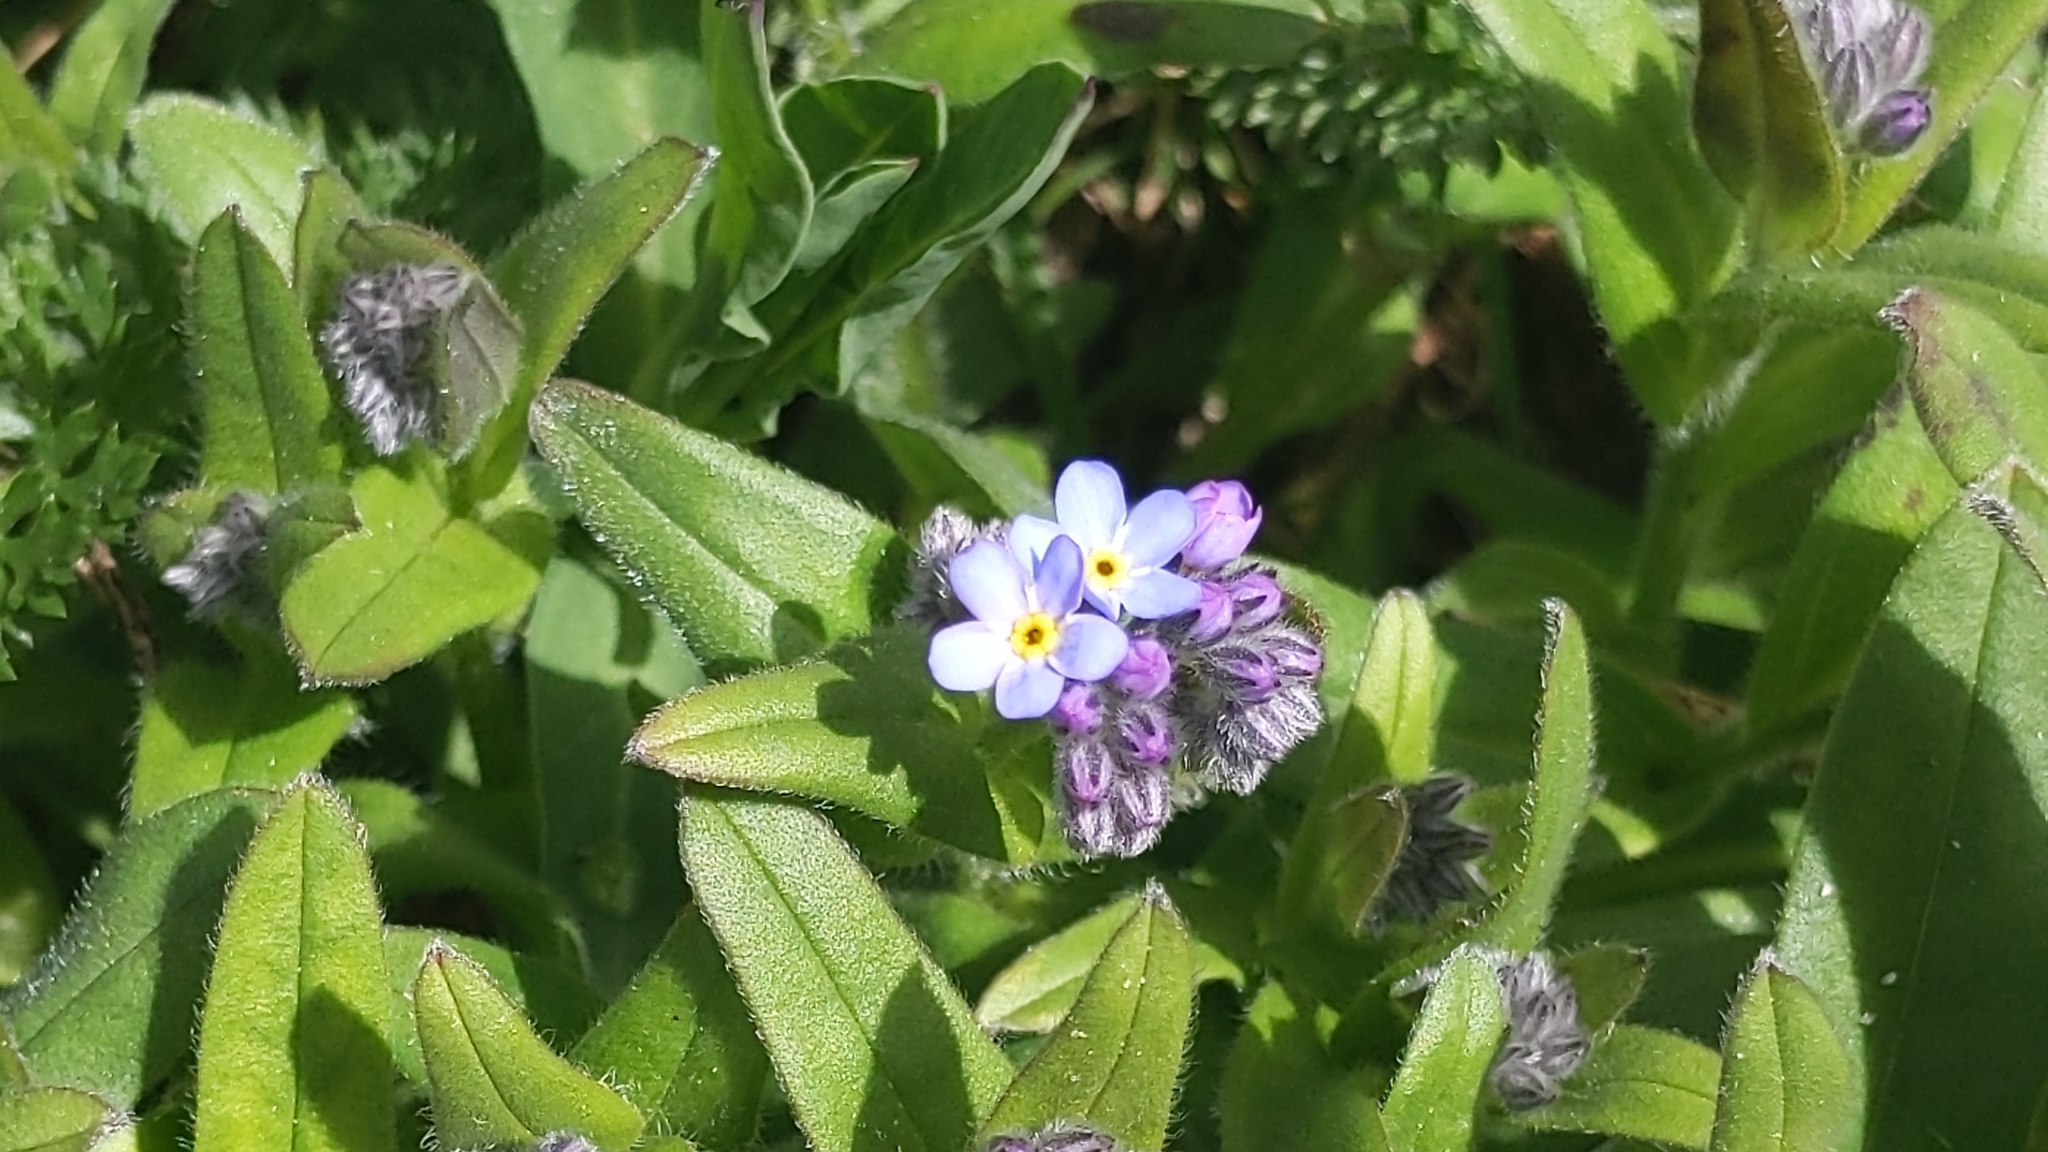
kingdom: Plantae
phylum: Tracheophyta
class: Magnoliopsida
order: Boraginales
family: Boraginaceae
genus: Myosotis
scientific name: Myosotis alpestris
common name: Alpine forget-me-not
